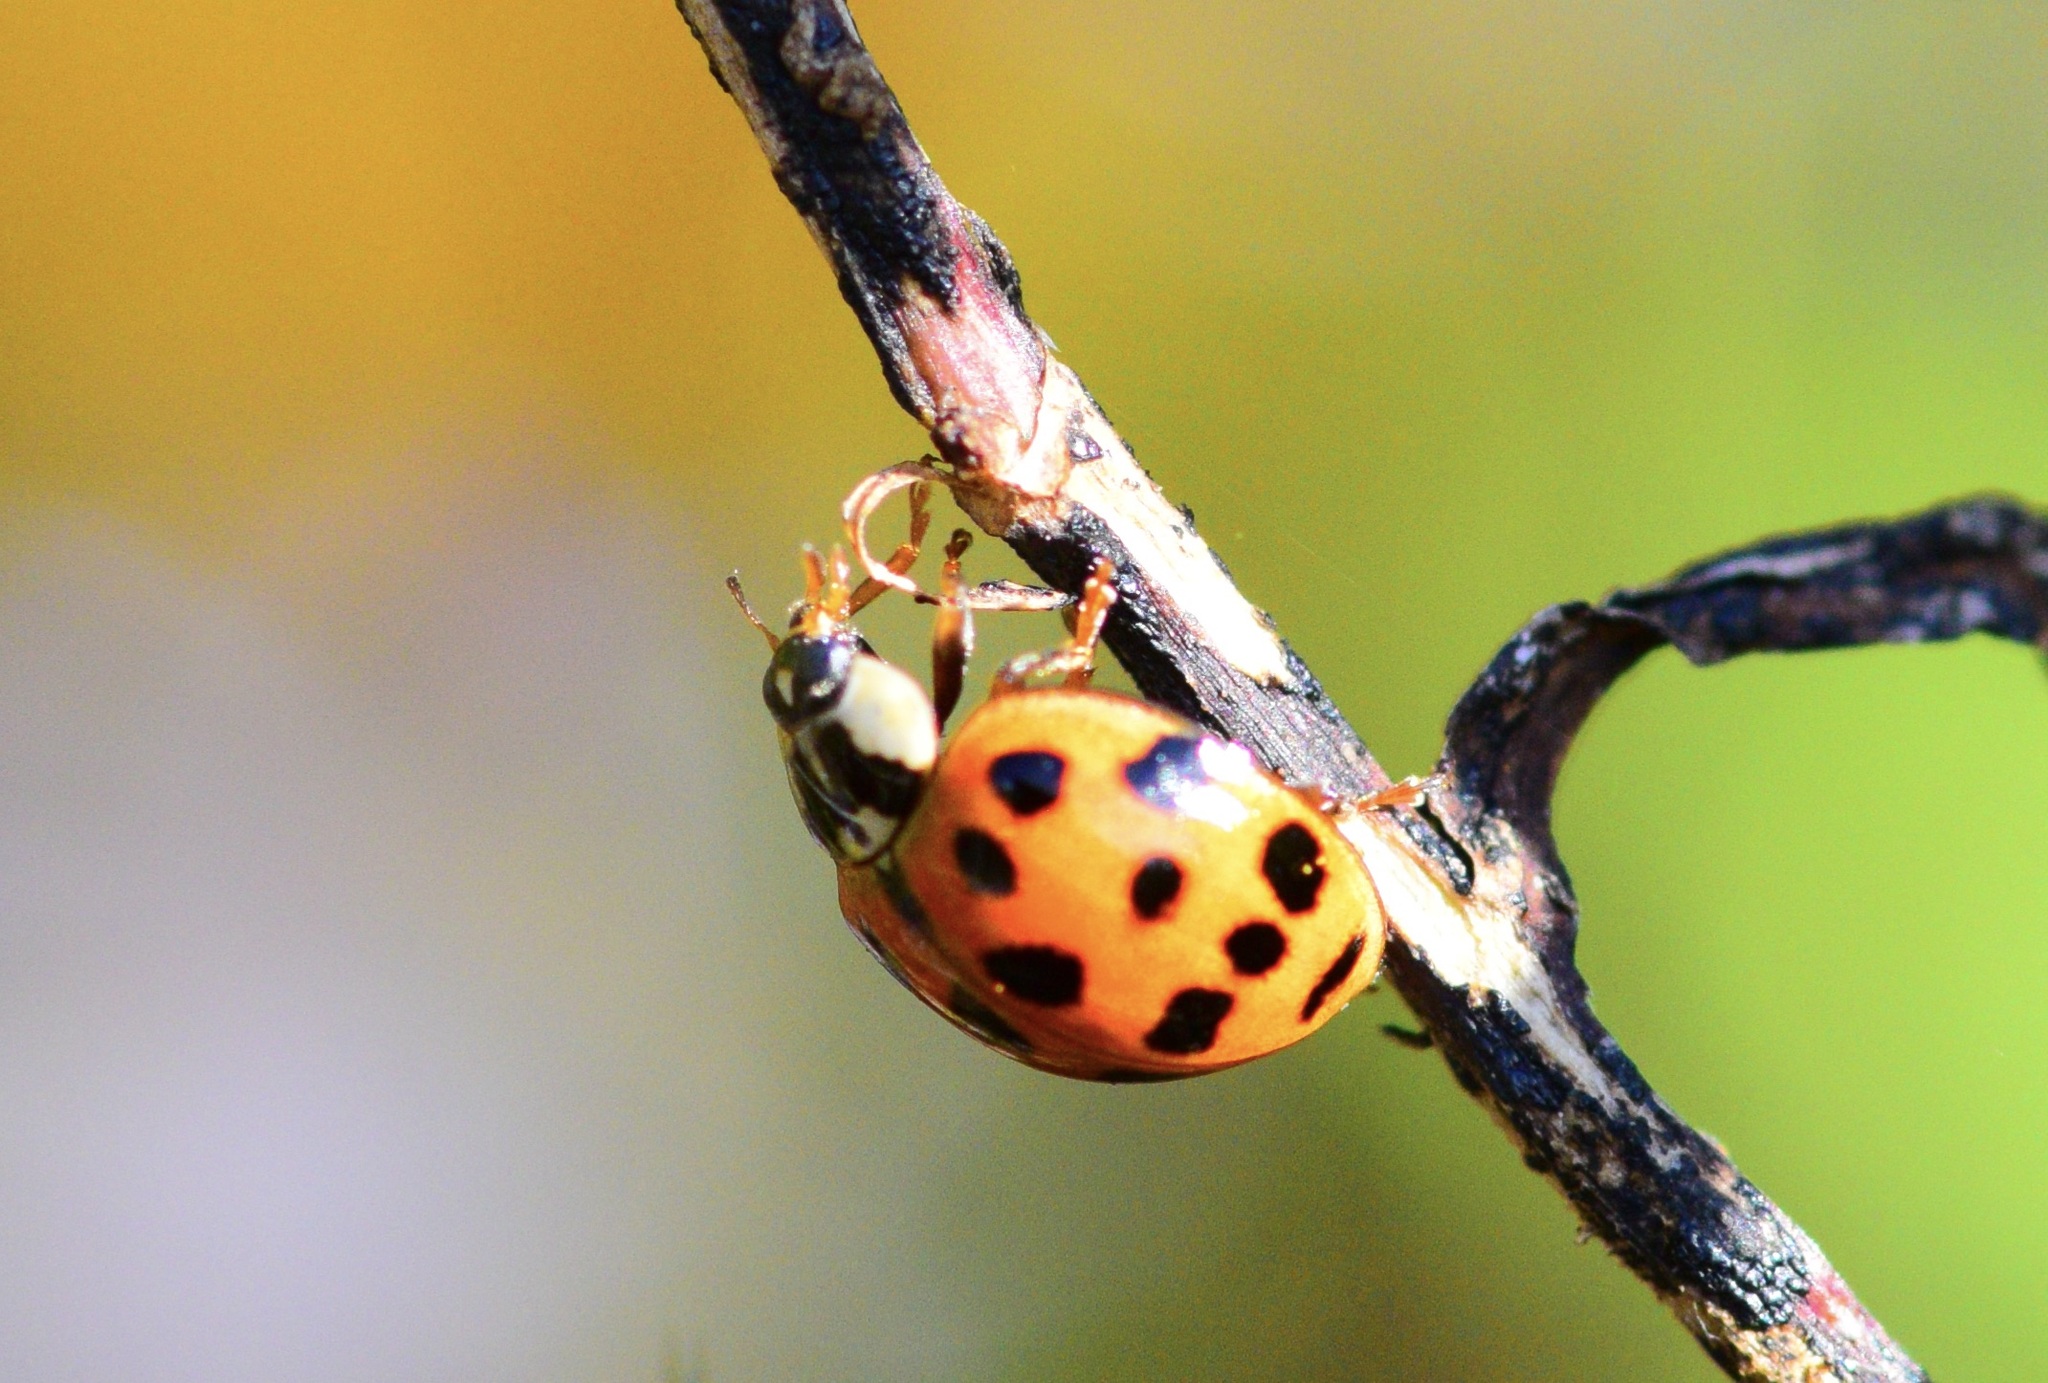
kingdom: Animalia
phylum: Arthropoda
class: Insecta
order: Coleoptera
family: Coccinellidae
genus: Harmonia
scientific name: Harmonia axyridis
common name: Harlequin ladybird
